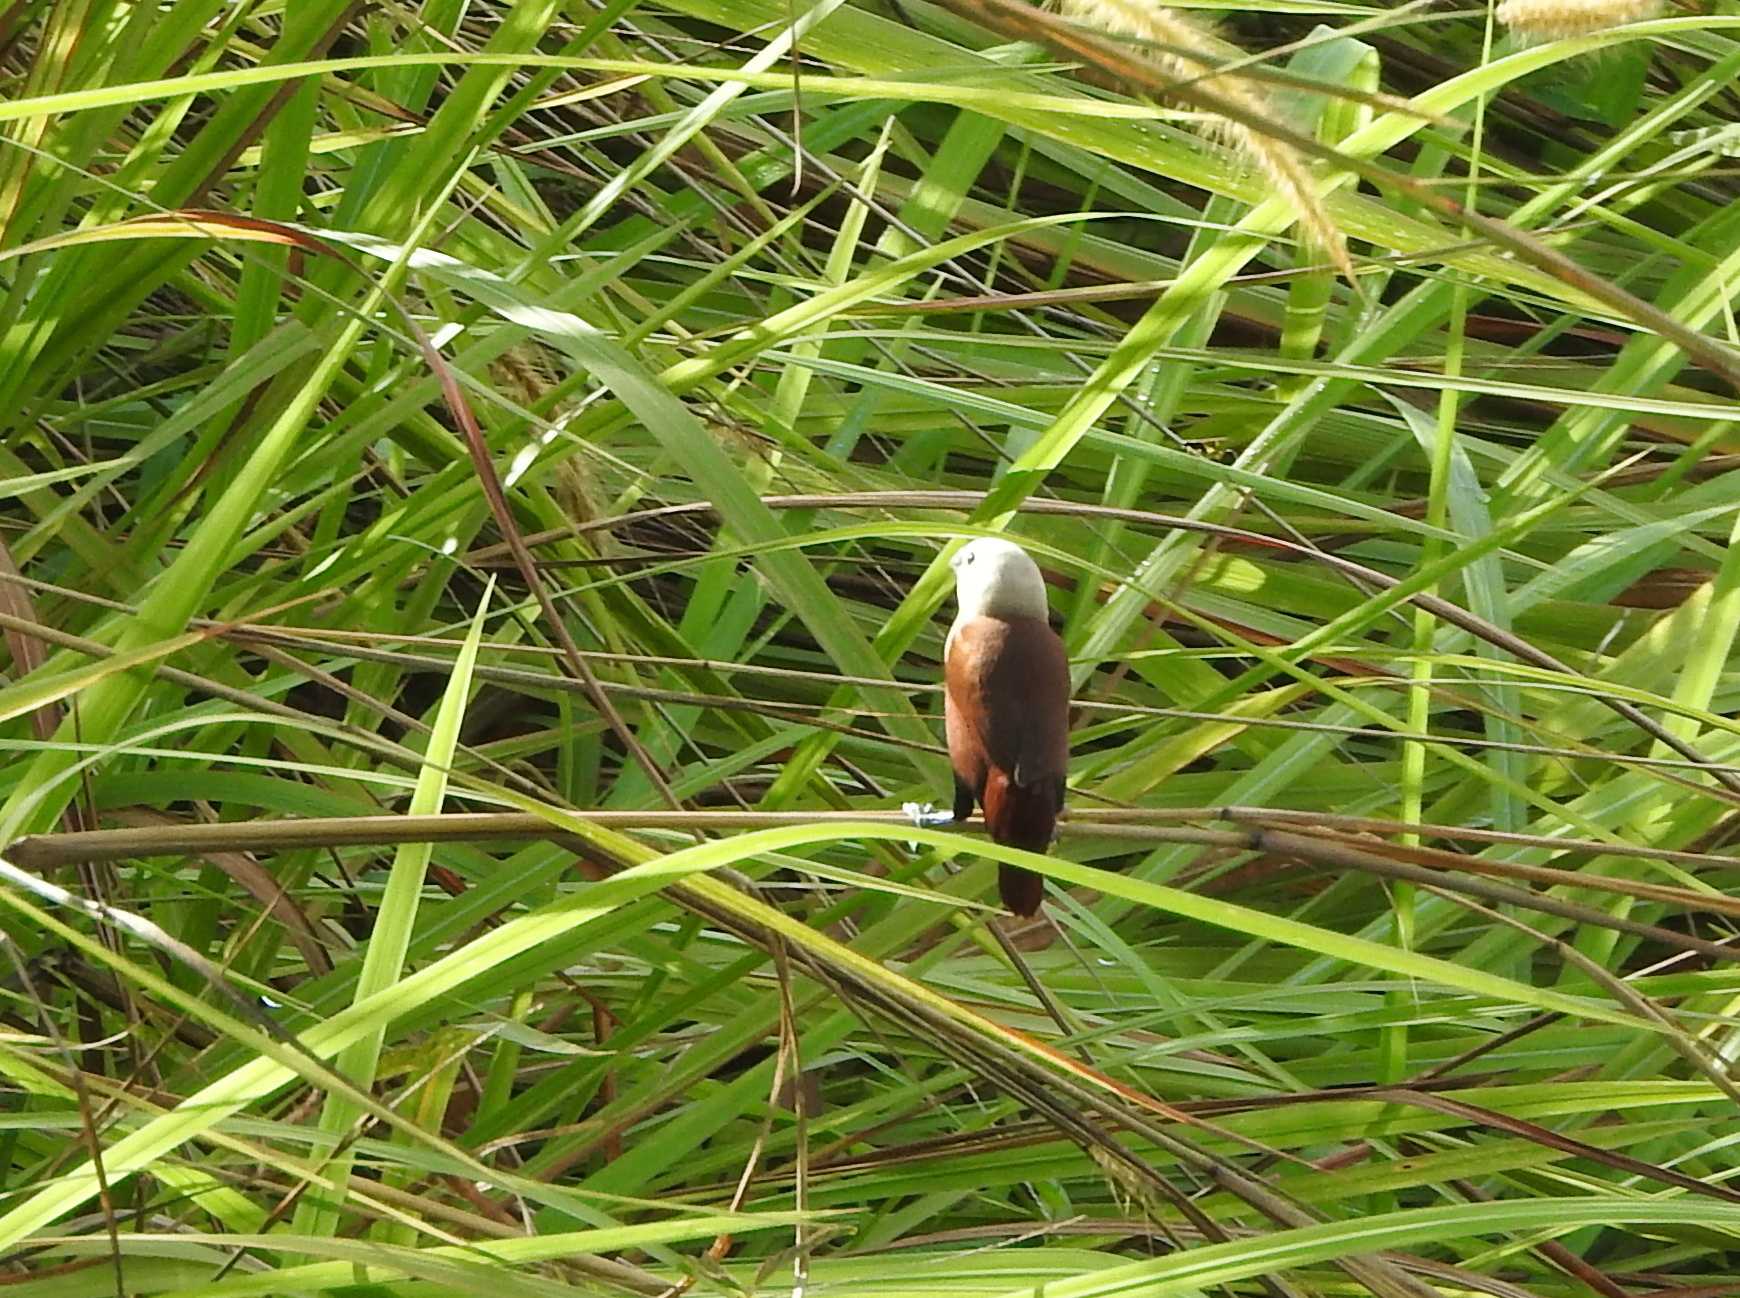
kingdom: Animalia
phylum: Chordata
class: Aves
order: Passeriformes
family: Estrildidae
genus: Lonchura
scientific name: Lonchura maja
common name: White-headed munia
